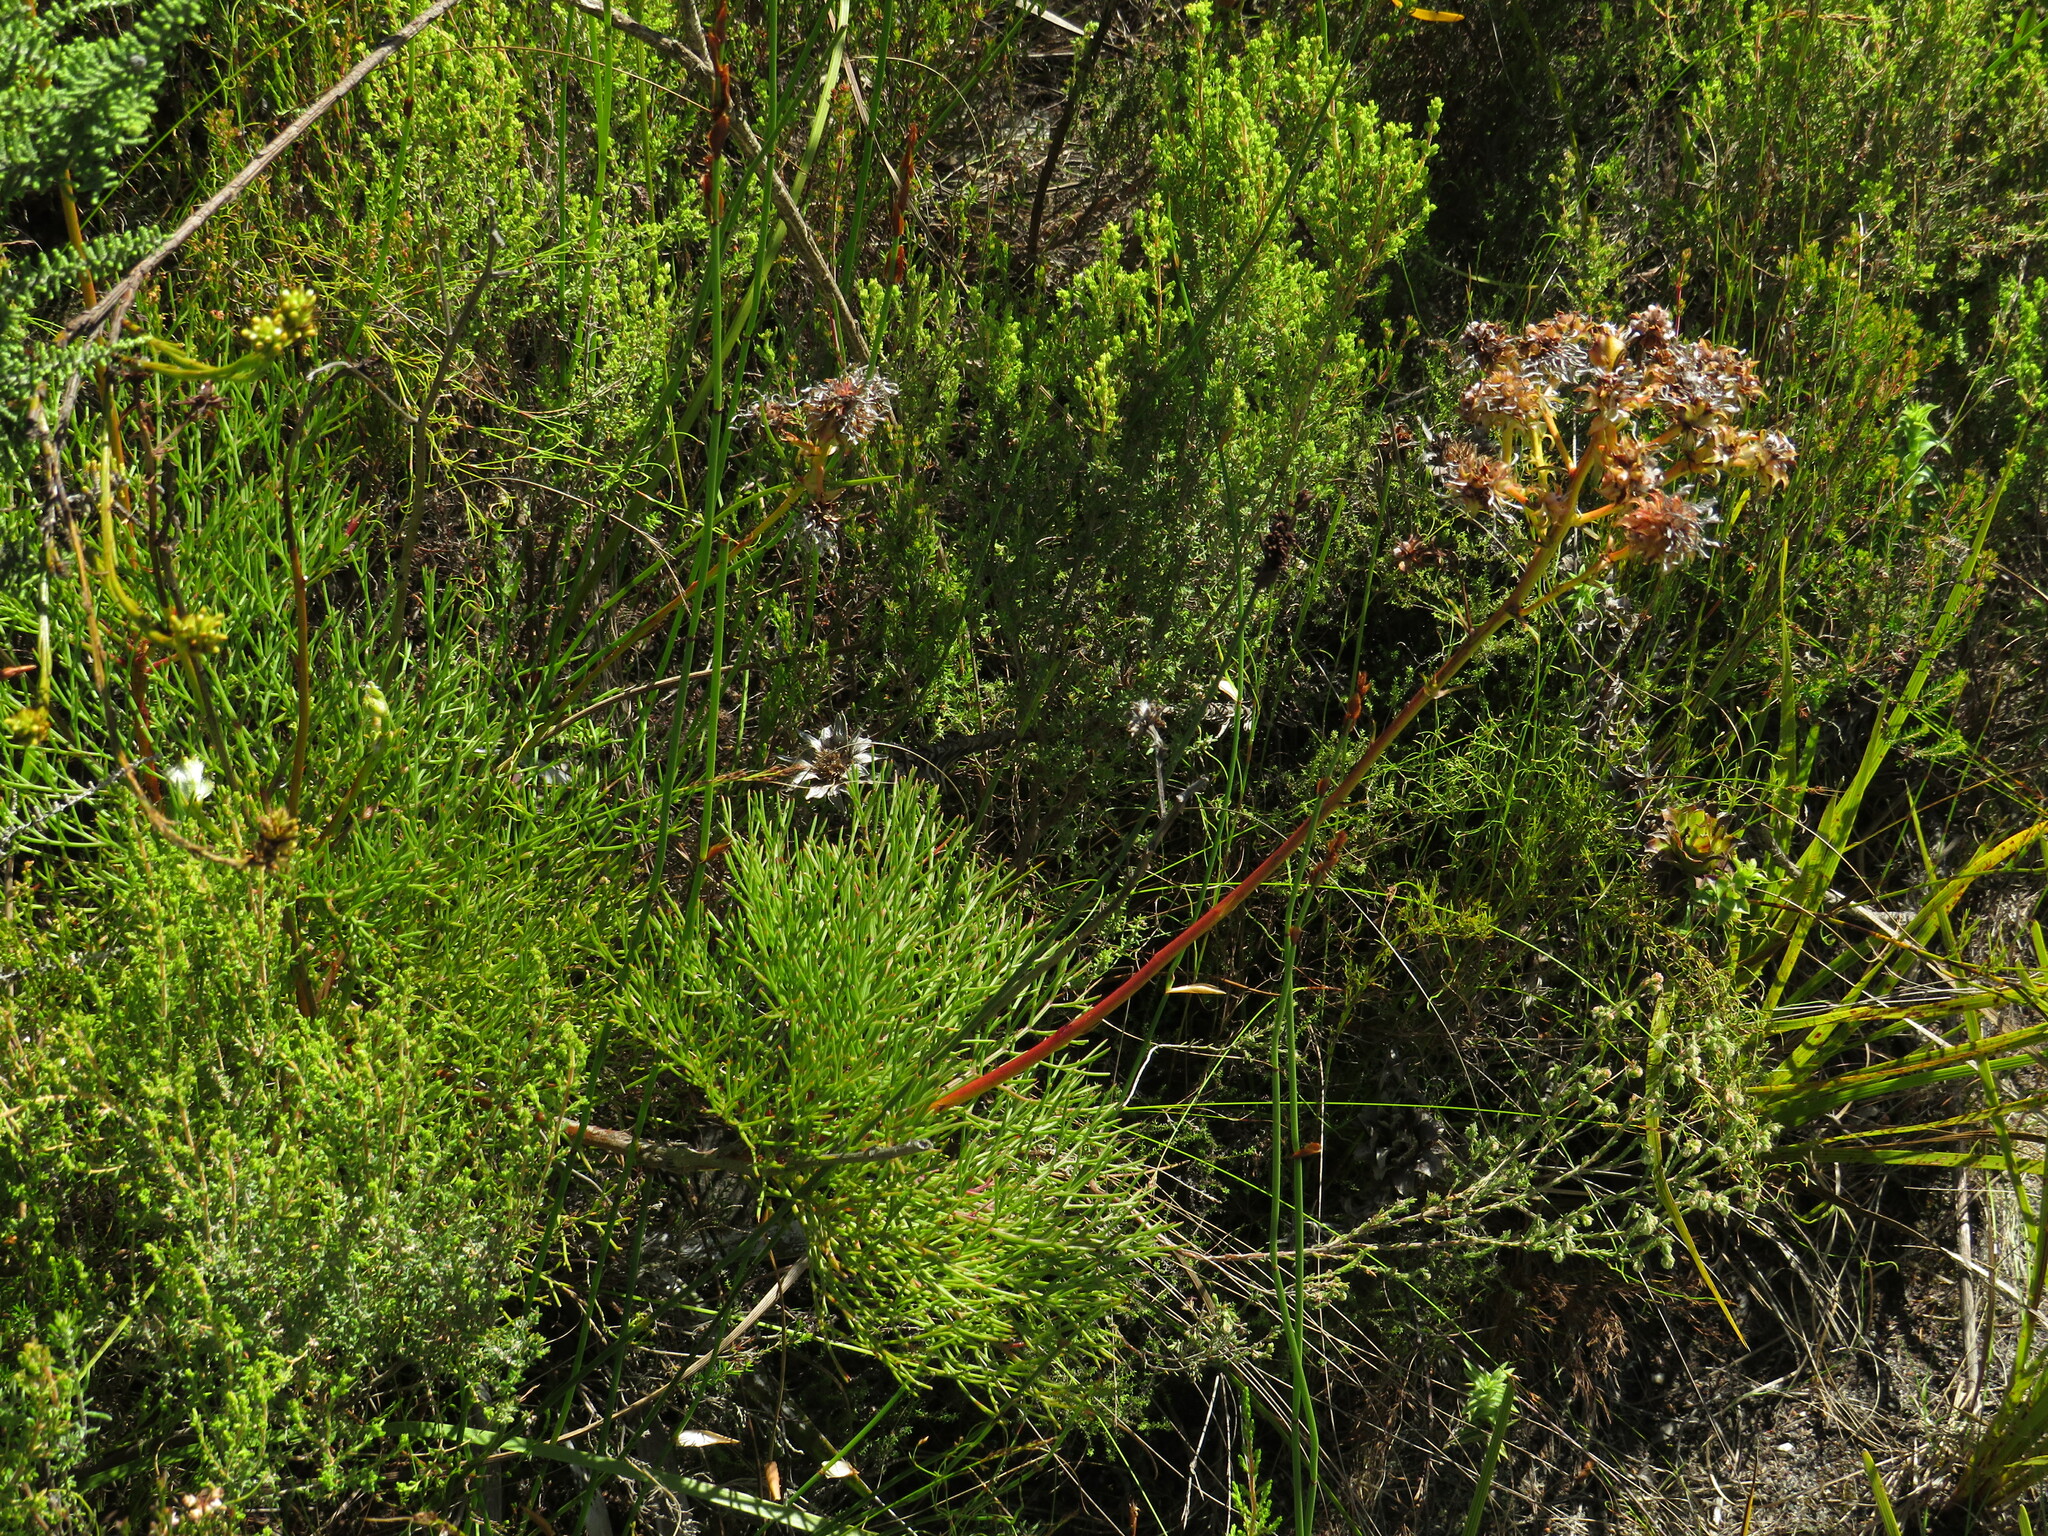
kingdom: Plantae
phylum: Tracheophyta
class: Magnoliopsida
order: Proteales
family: Proteaceae
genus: Serruria
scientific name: Serruria elongata
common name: Long-stalk spiderhead
